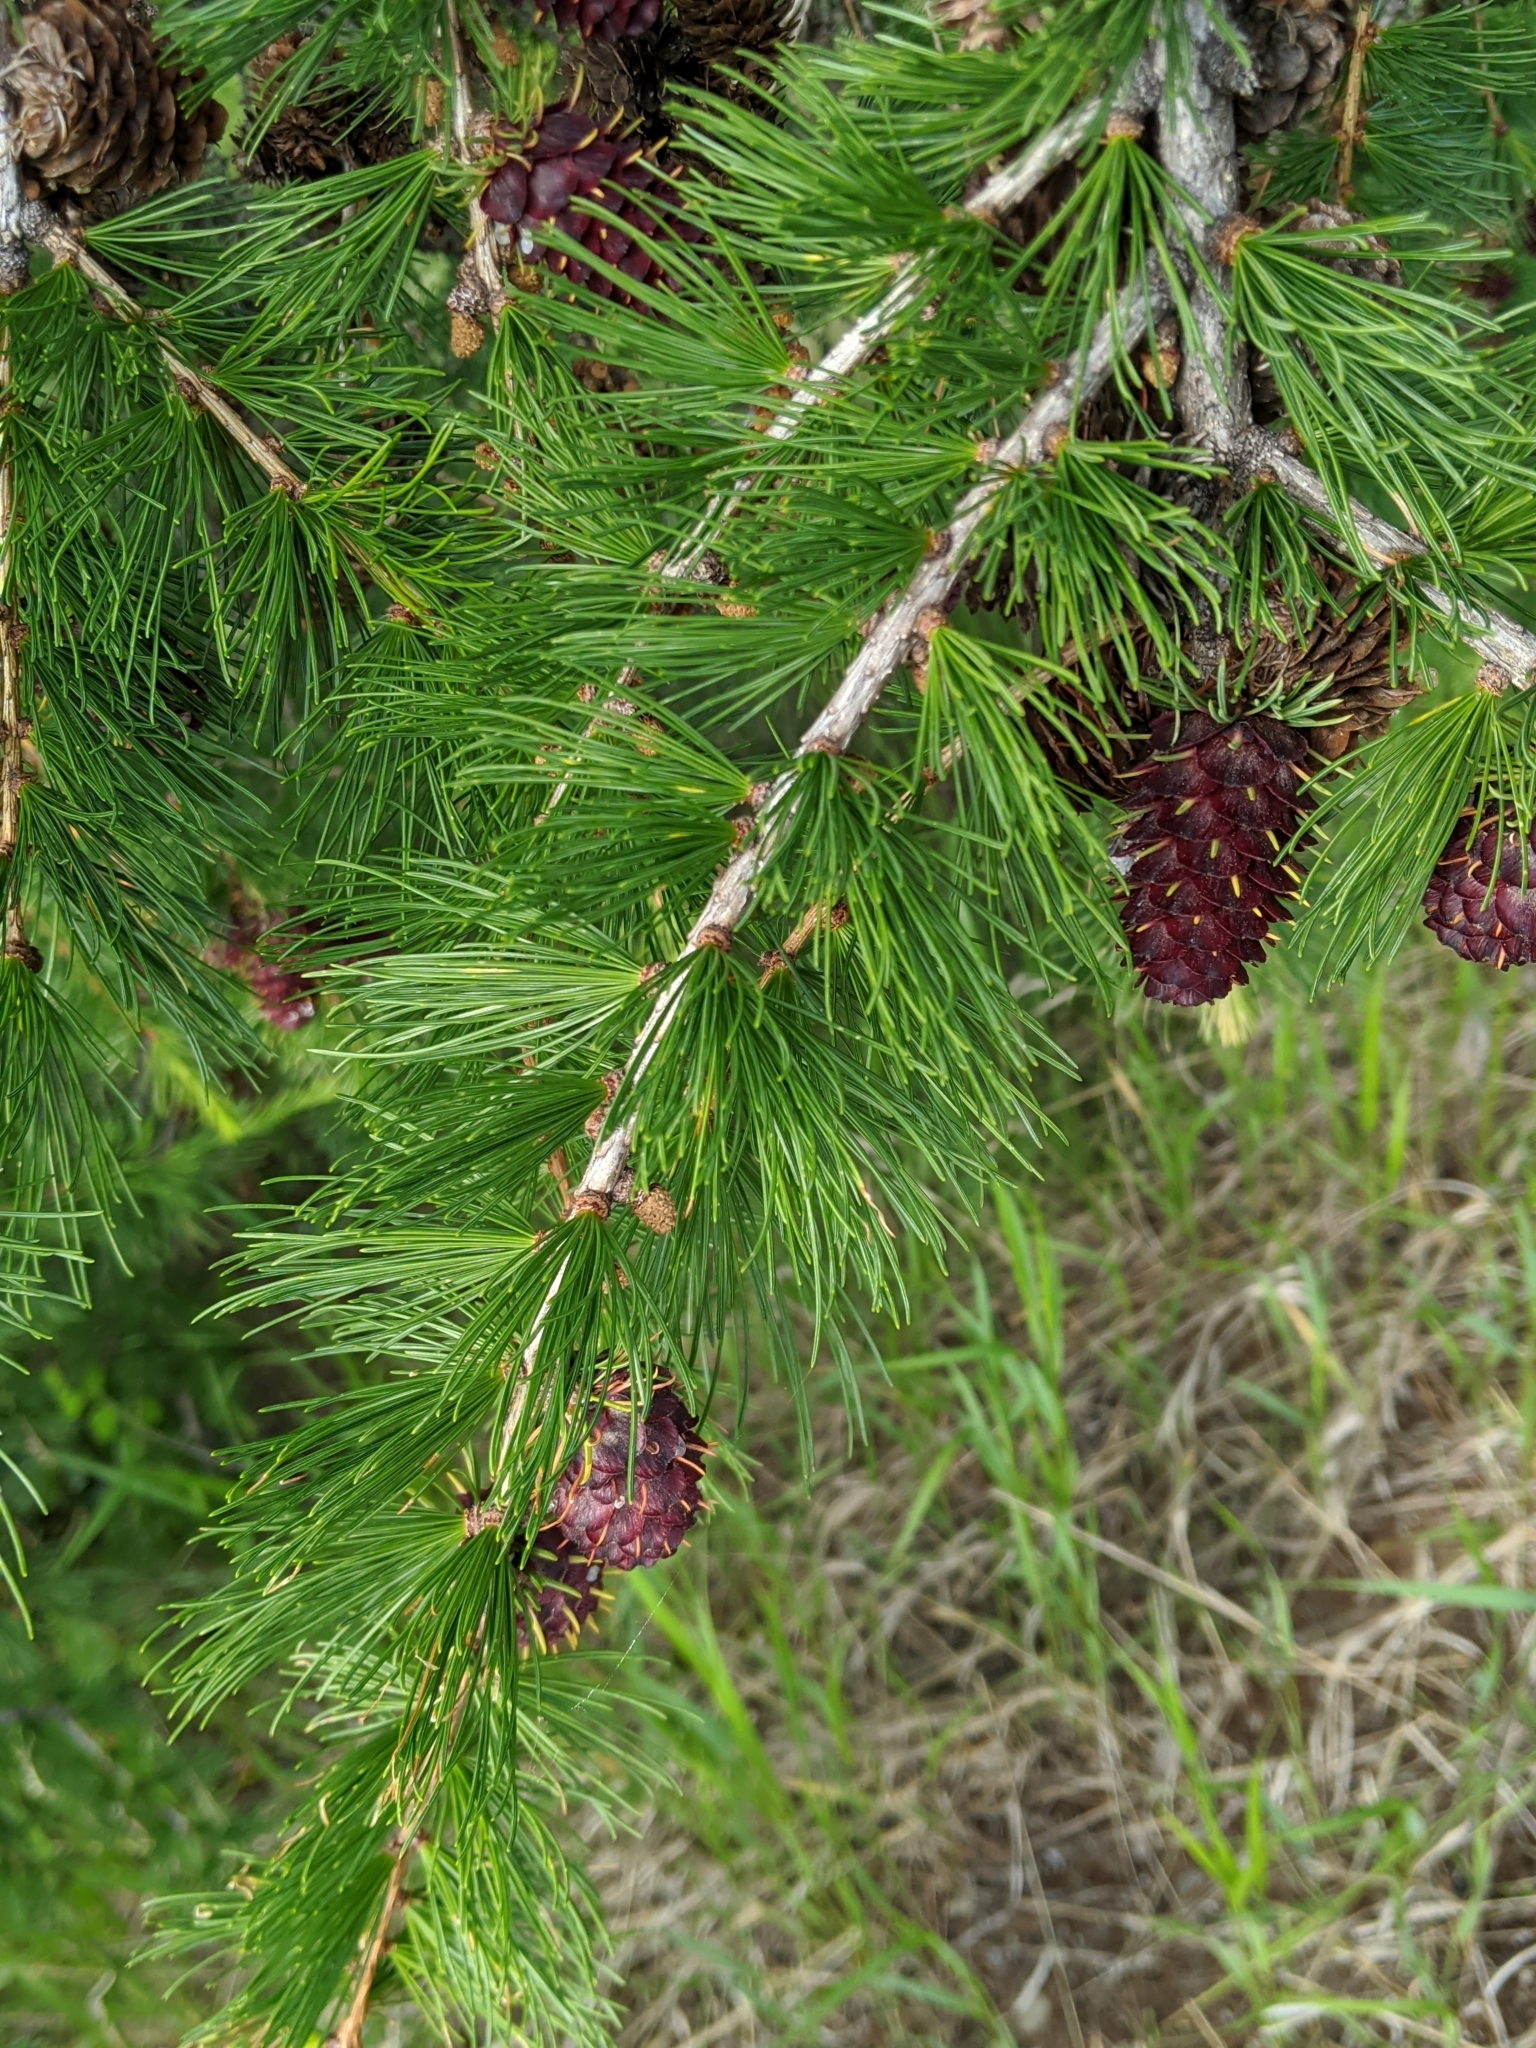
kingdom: Plantae
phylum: Tracheophyta
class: Pinopsida
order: Pinales
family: Pinaceae
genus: Larix
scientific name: Larix occidentalis
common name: Western larch
